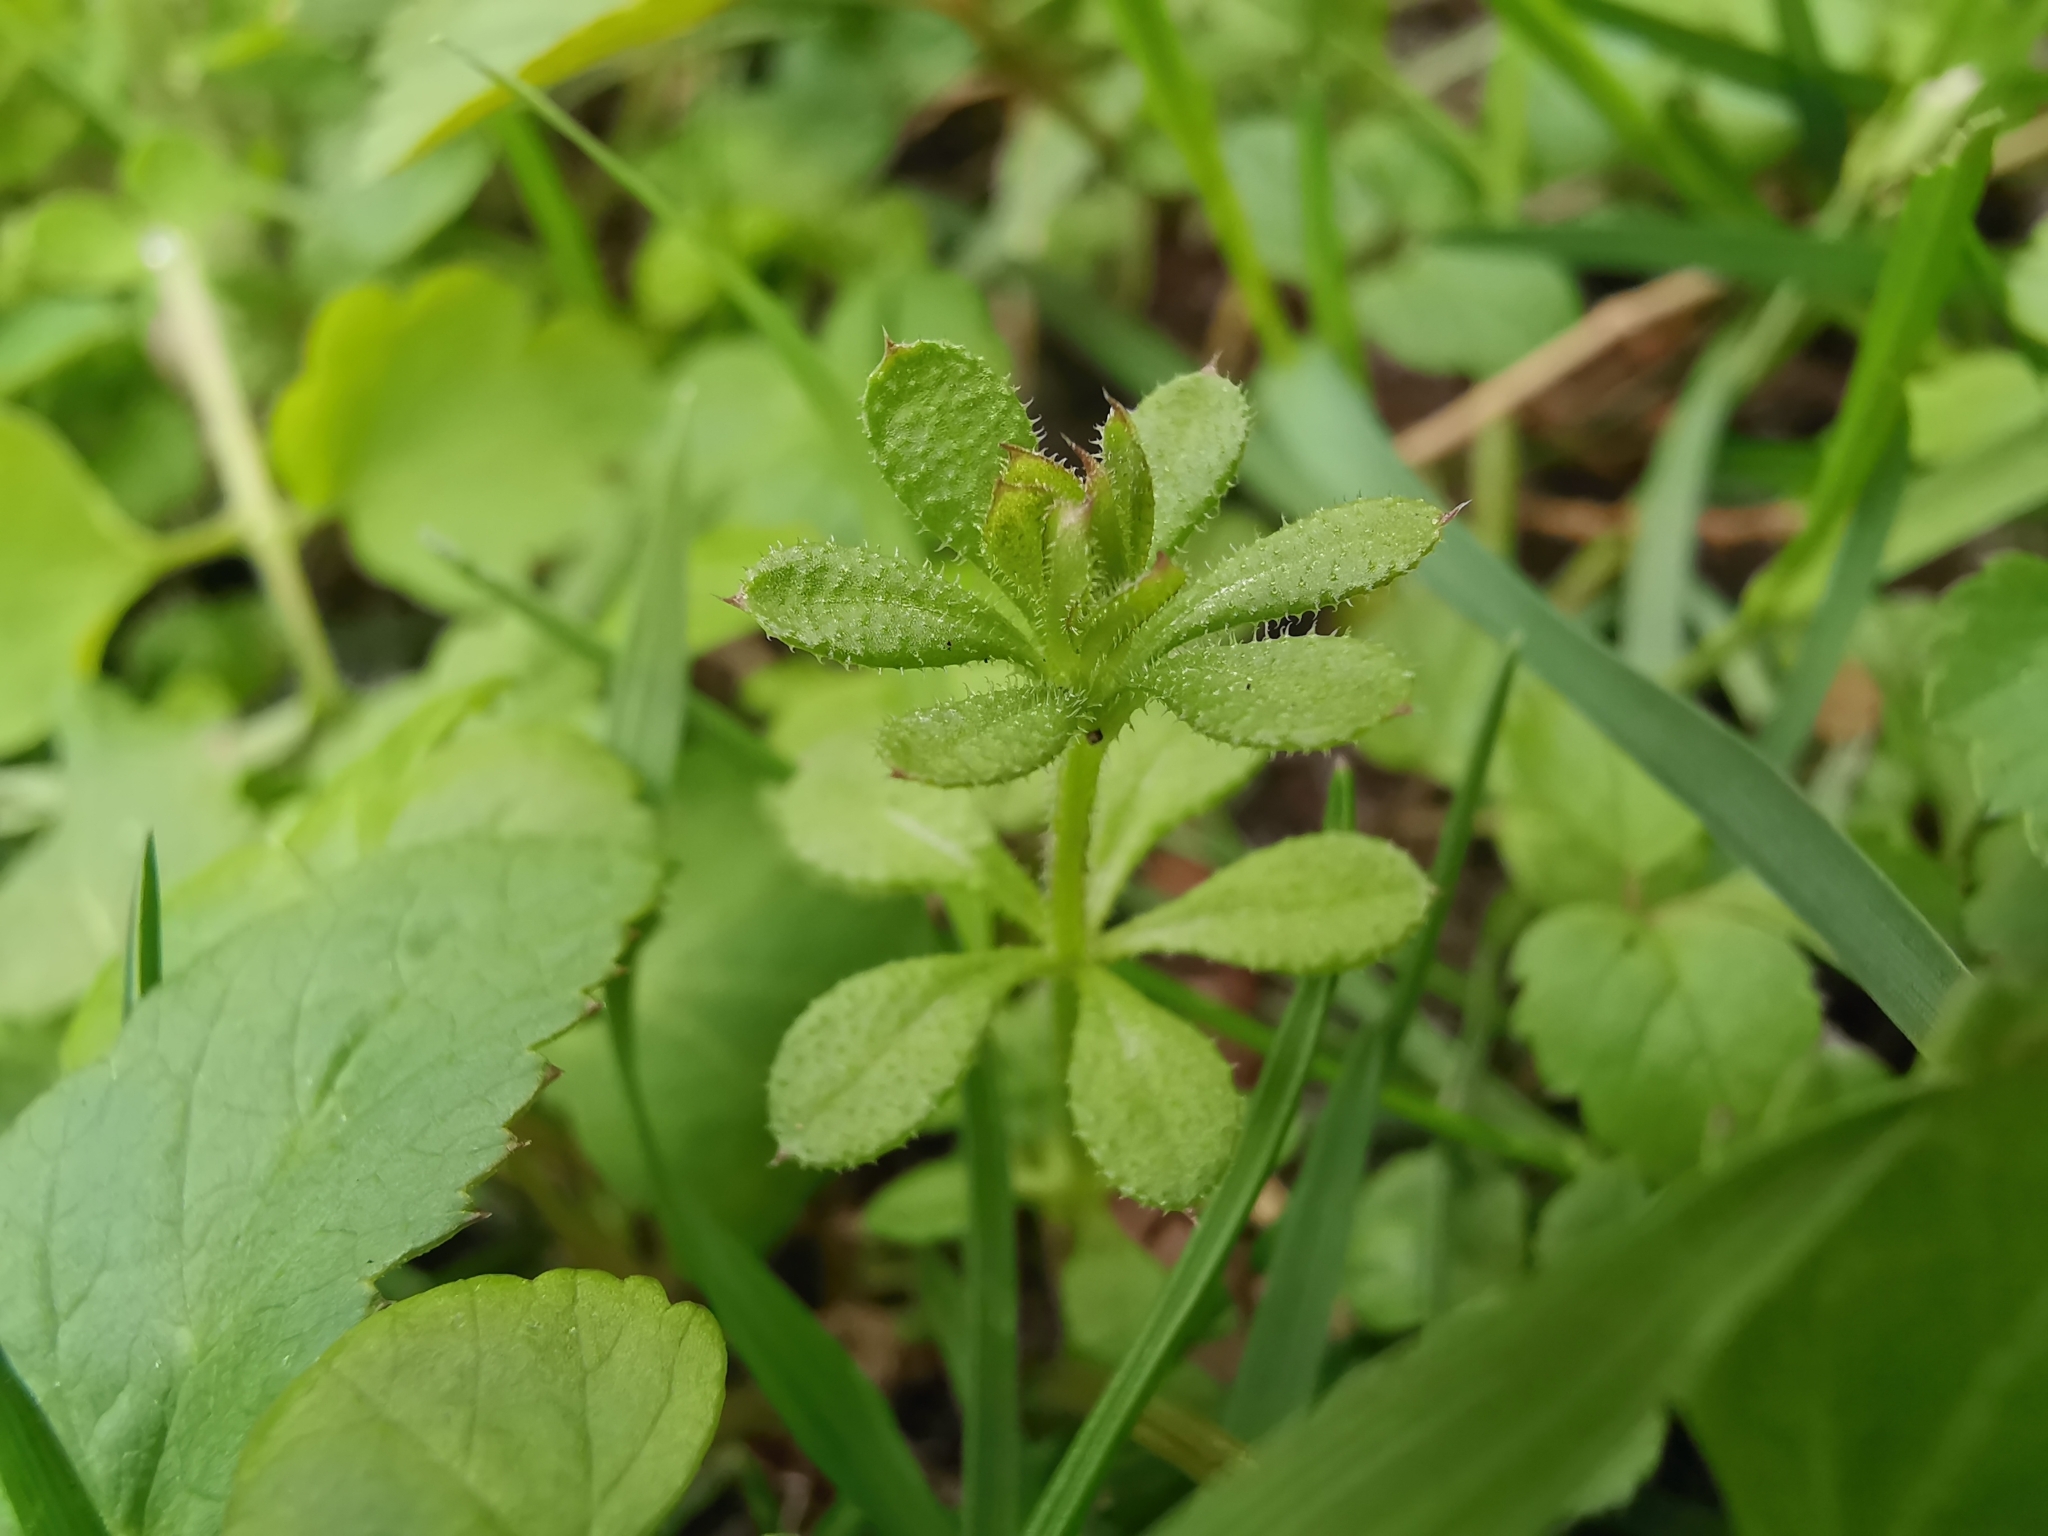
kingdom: Plantae
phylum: Tracheophyta
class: Magnoliopsida
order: Gentianales
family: Rubiaceae
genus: Galium
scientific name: Galium aparine
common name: Cleavers
